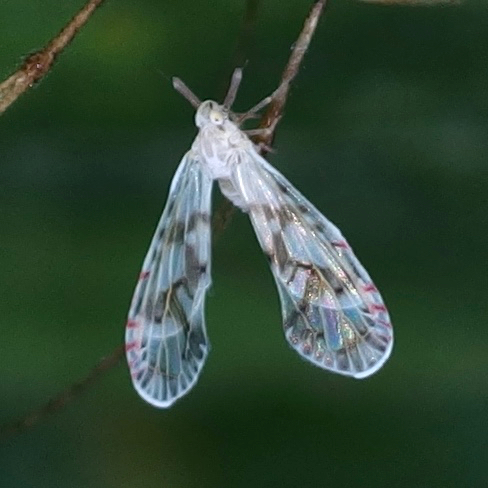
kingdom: Animalia
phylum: Arthropoda
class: Insecta
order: Hemiptera
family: Derbidae
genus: Anotia
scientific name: Anotia caliginosa
